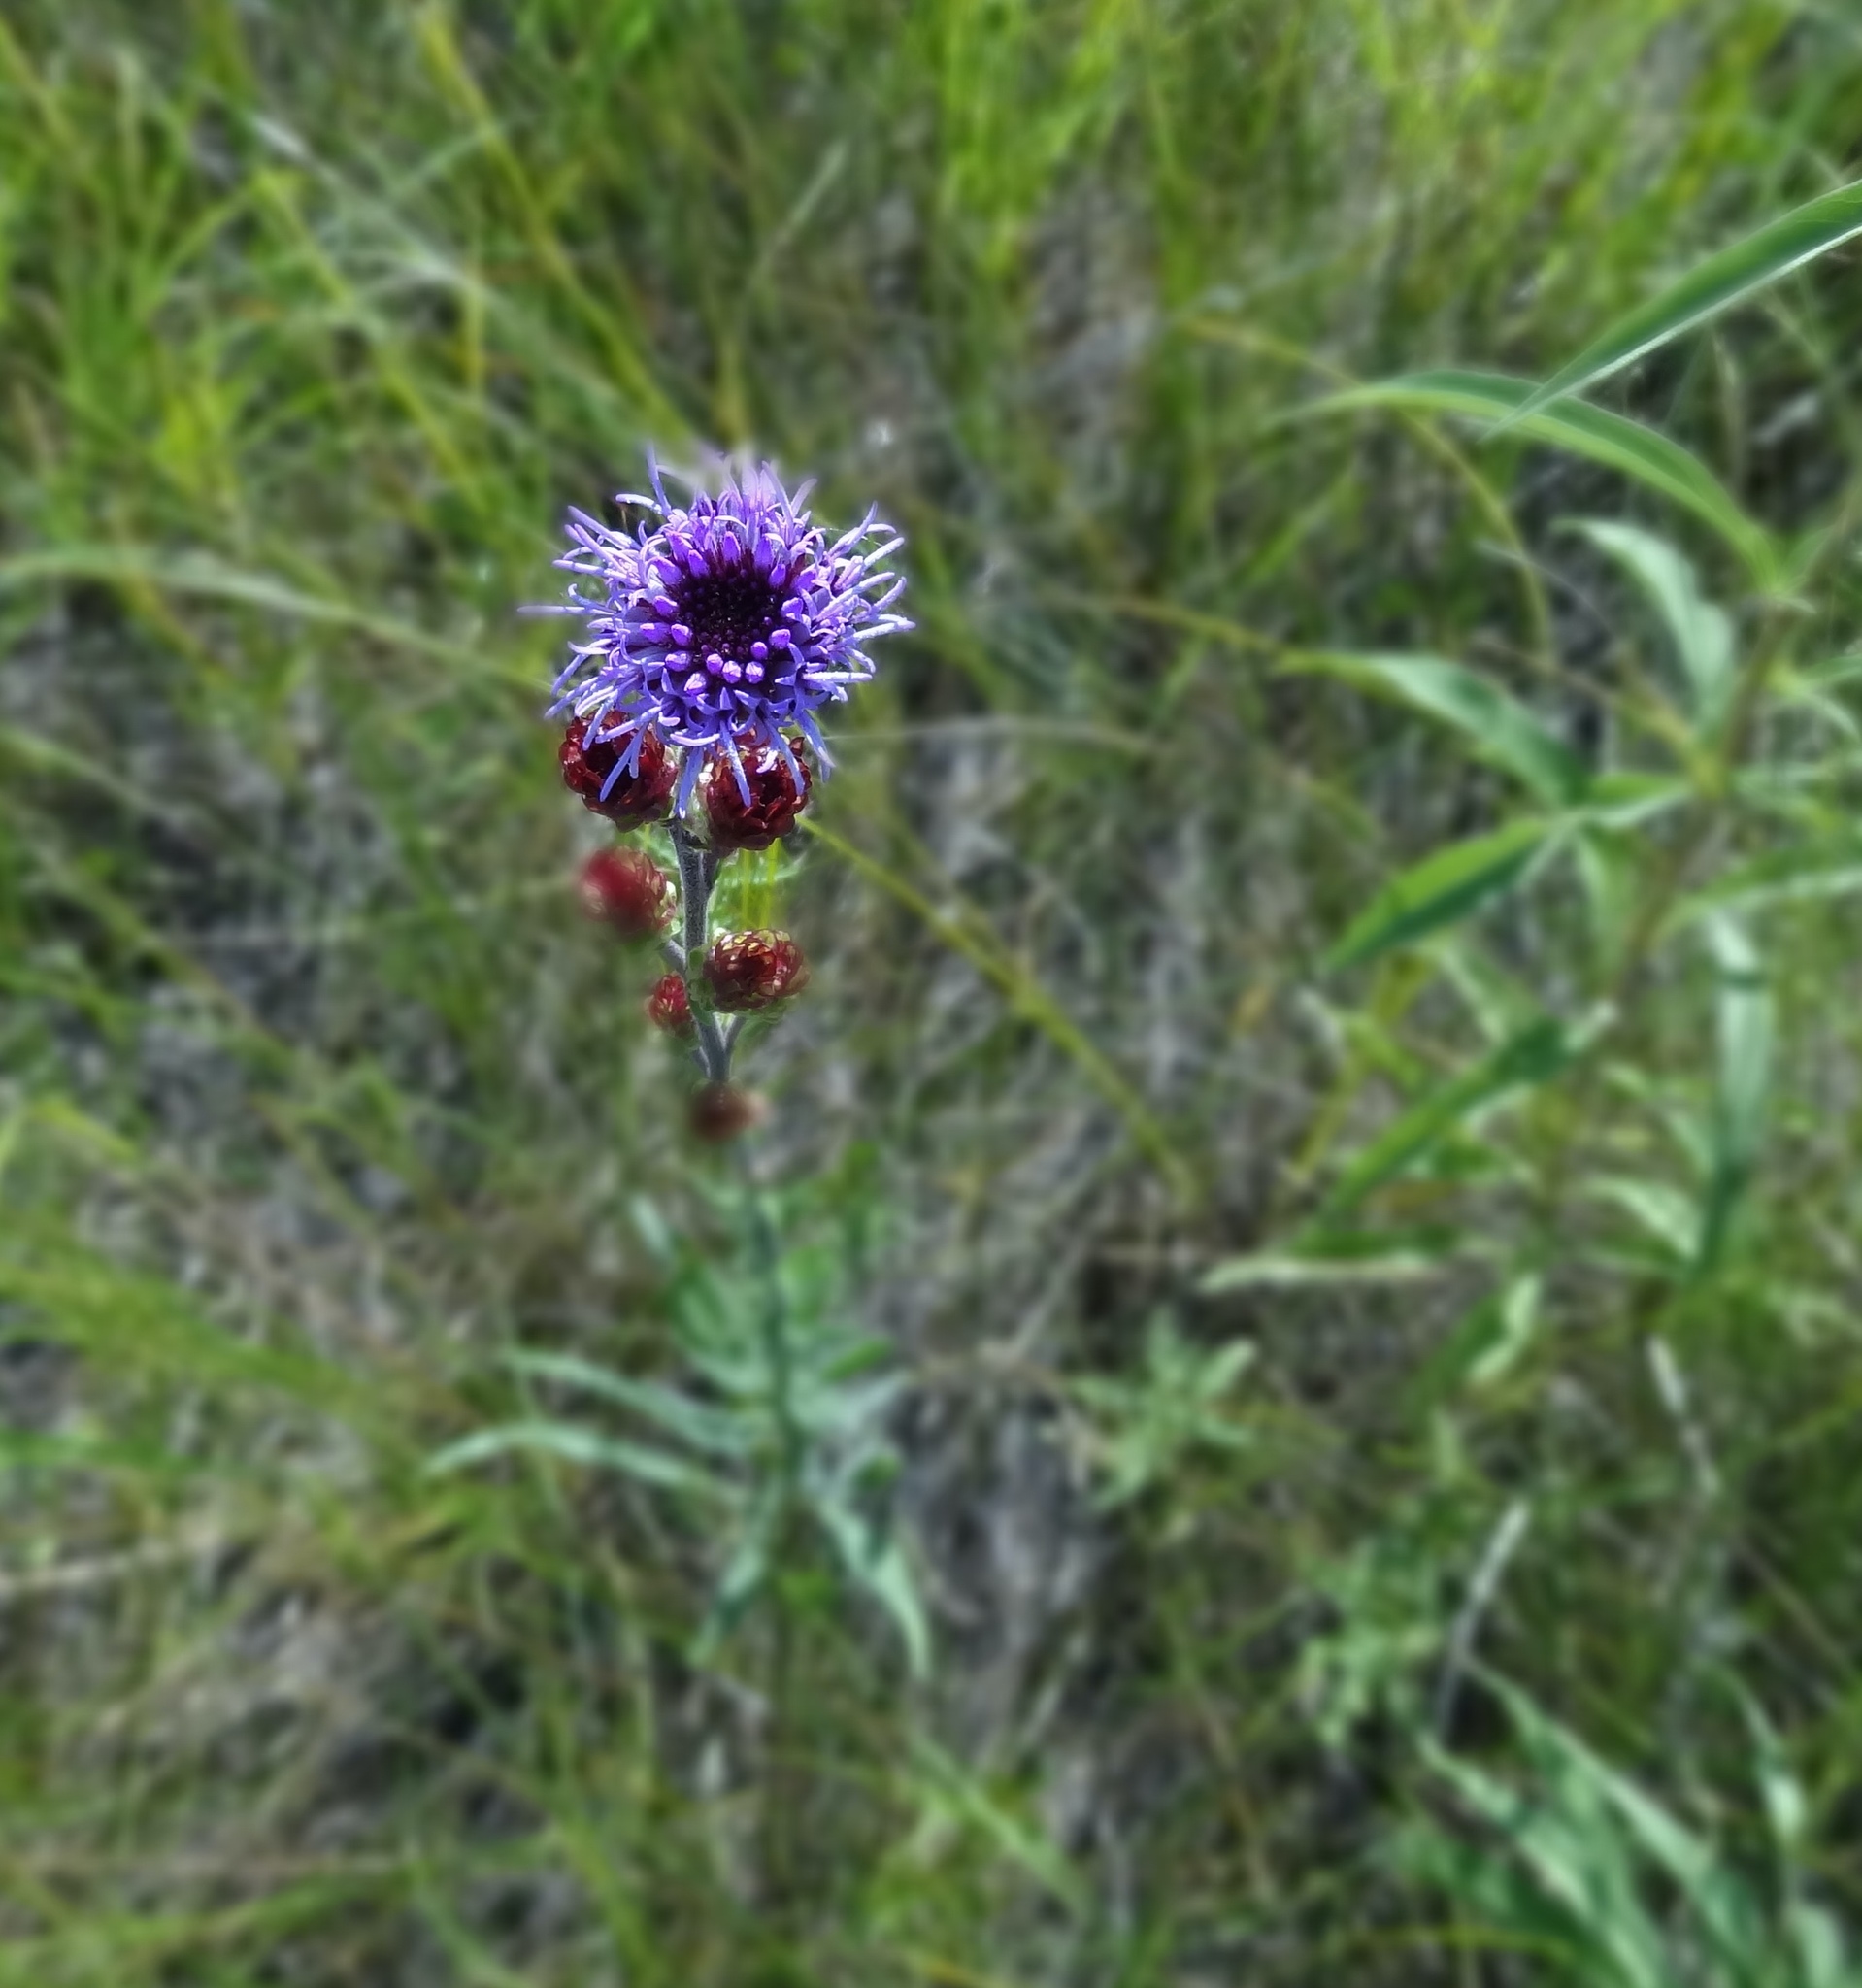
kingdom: Plantae
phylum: Tracheophyta
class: Magnoliopsida
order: Asterales
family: Asteraceae
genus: Liatris
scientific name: Liatris ligulistylis
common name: Northern plains gayfeather
